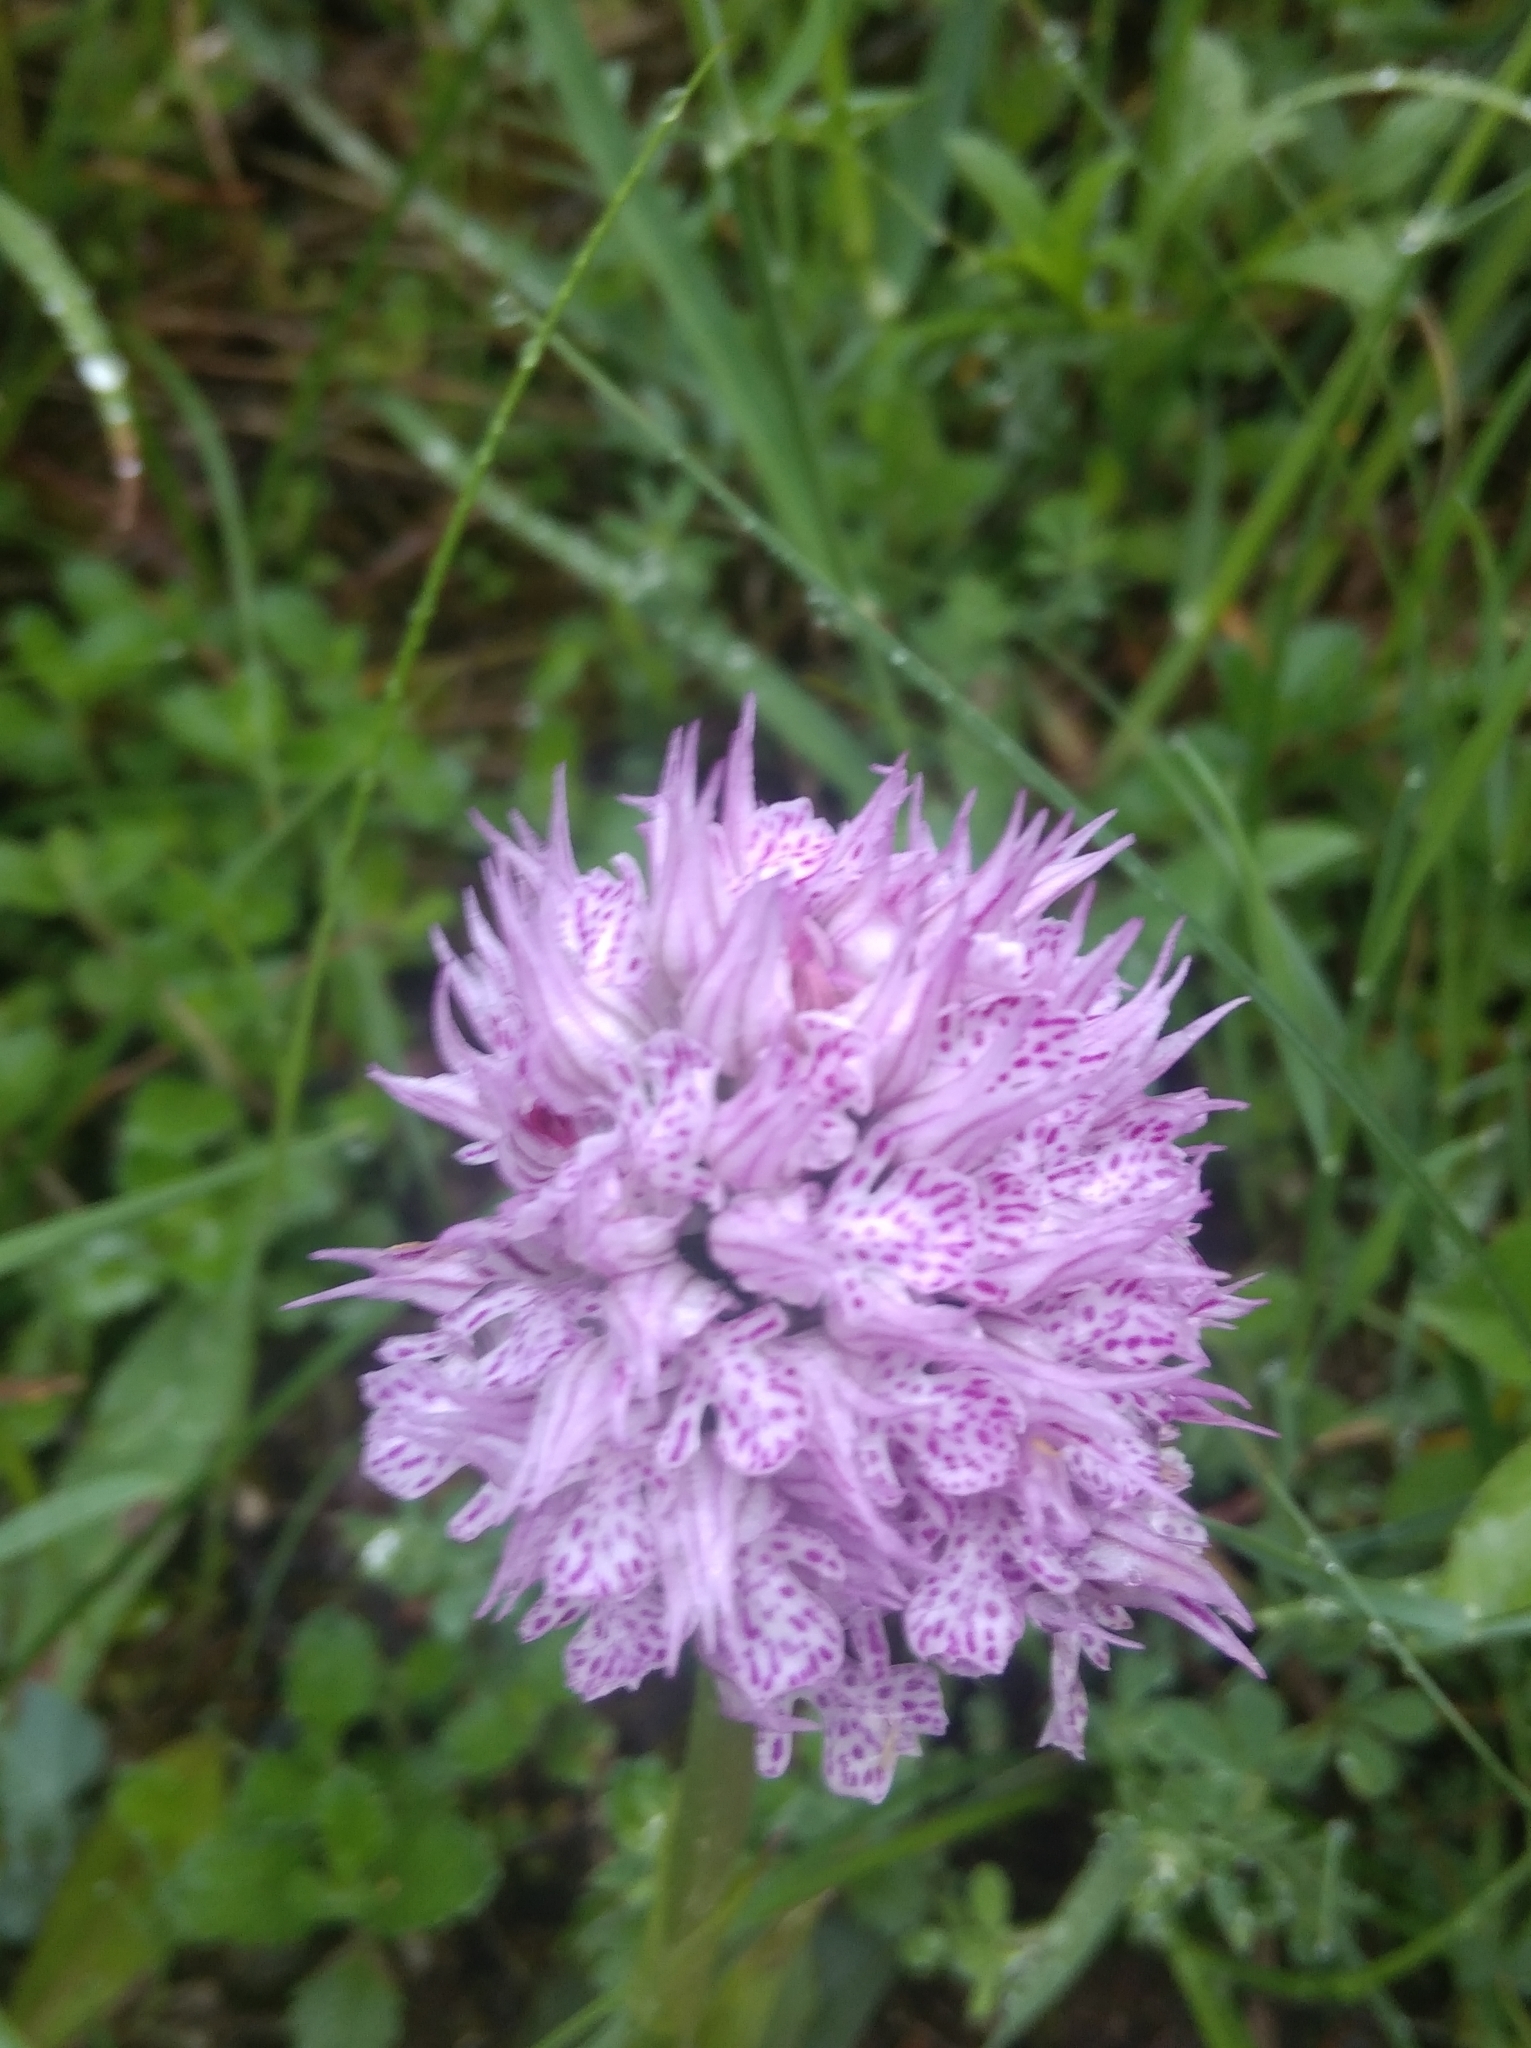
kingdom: Plantae
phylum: Tracheophyta
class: Liliopsida
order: Asparagales
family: Orchidaceae
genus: Neotinea
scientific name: Neotinea tridentata
